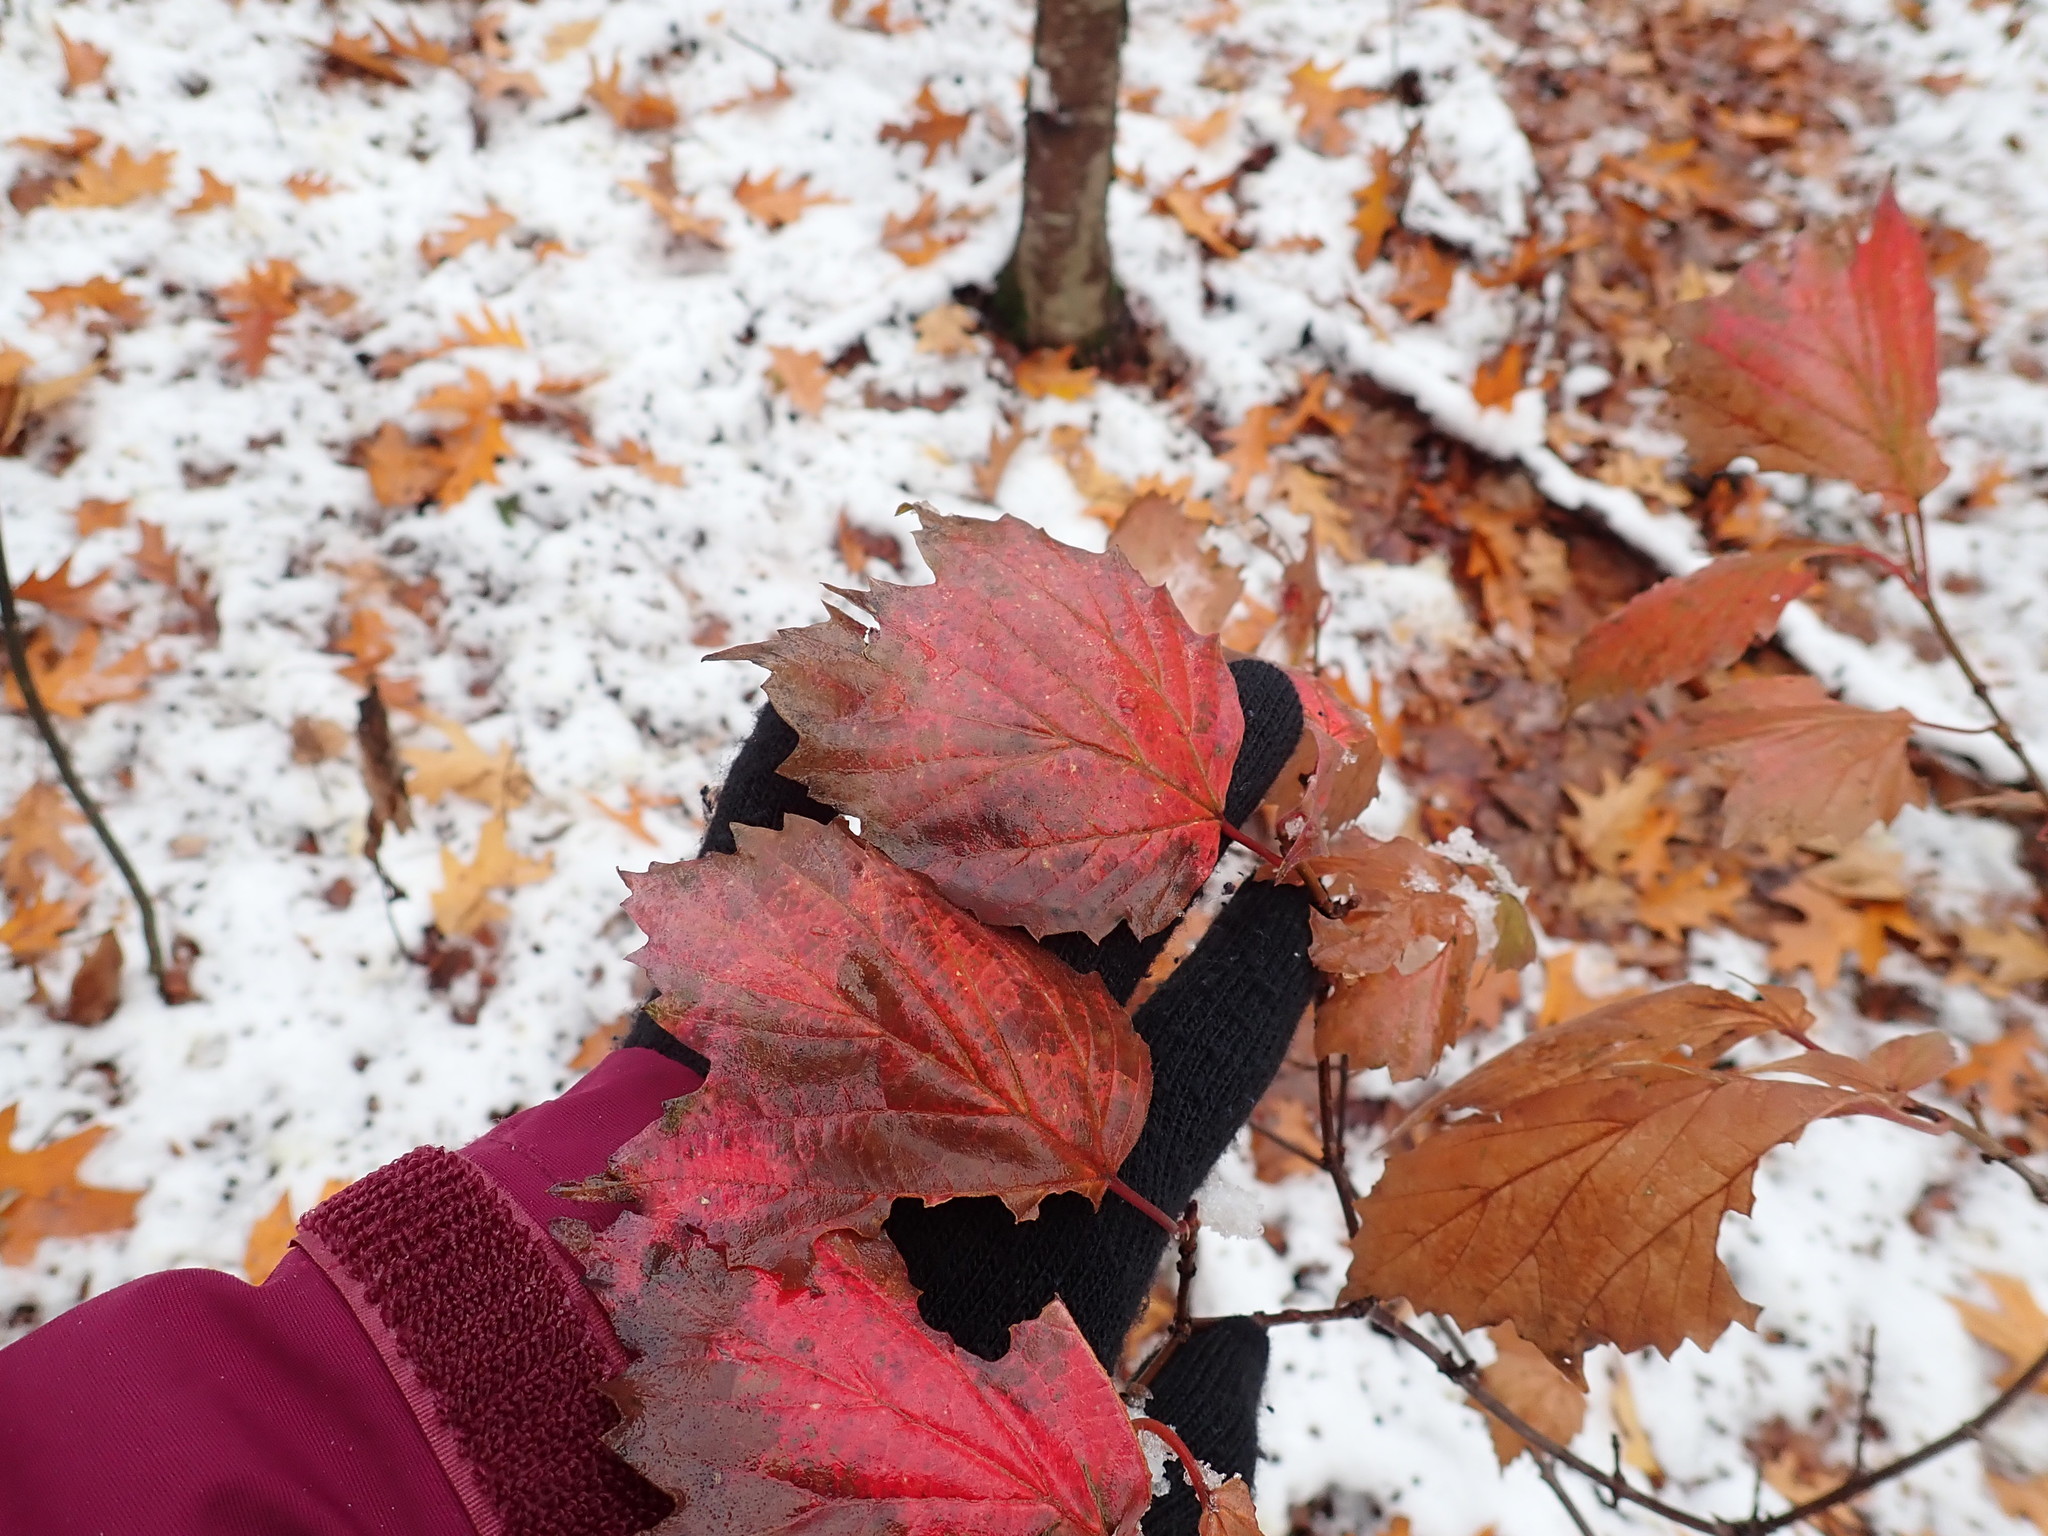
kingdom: Plantae
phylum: Tracheophyta
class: Magnoliopsida
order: Dipsacales
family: Viburnaceae
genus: Viburnum
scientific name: Viburnum acerifolium
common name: Dockmackie
